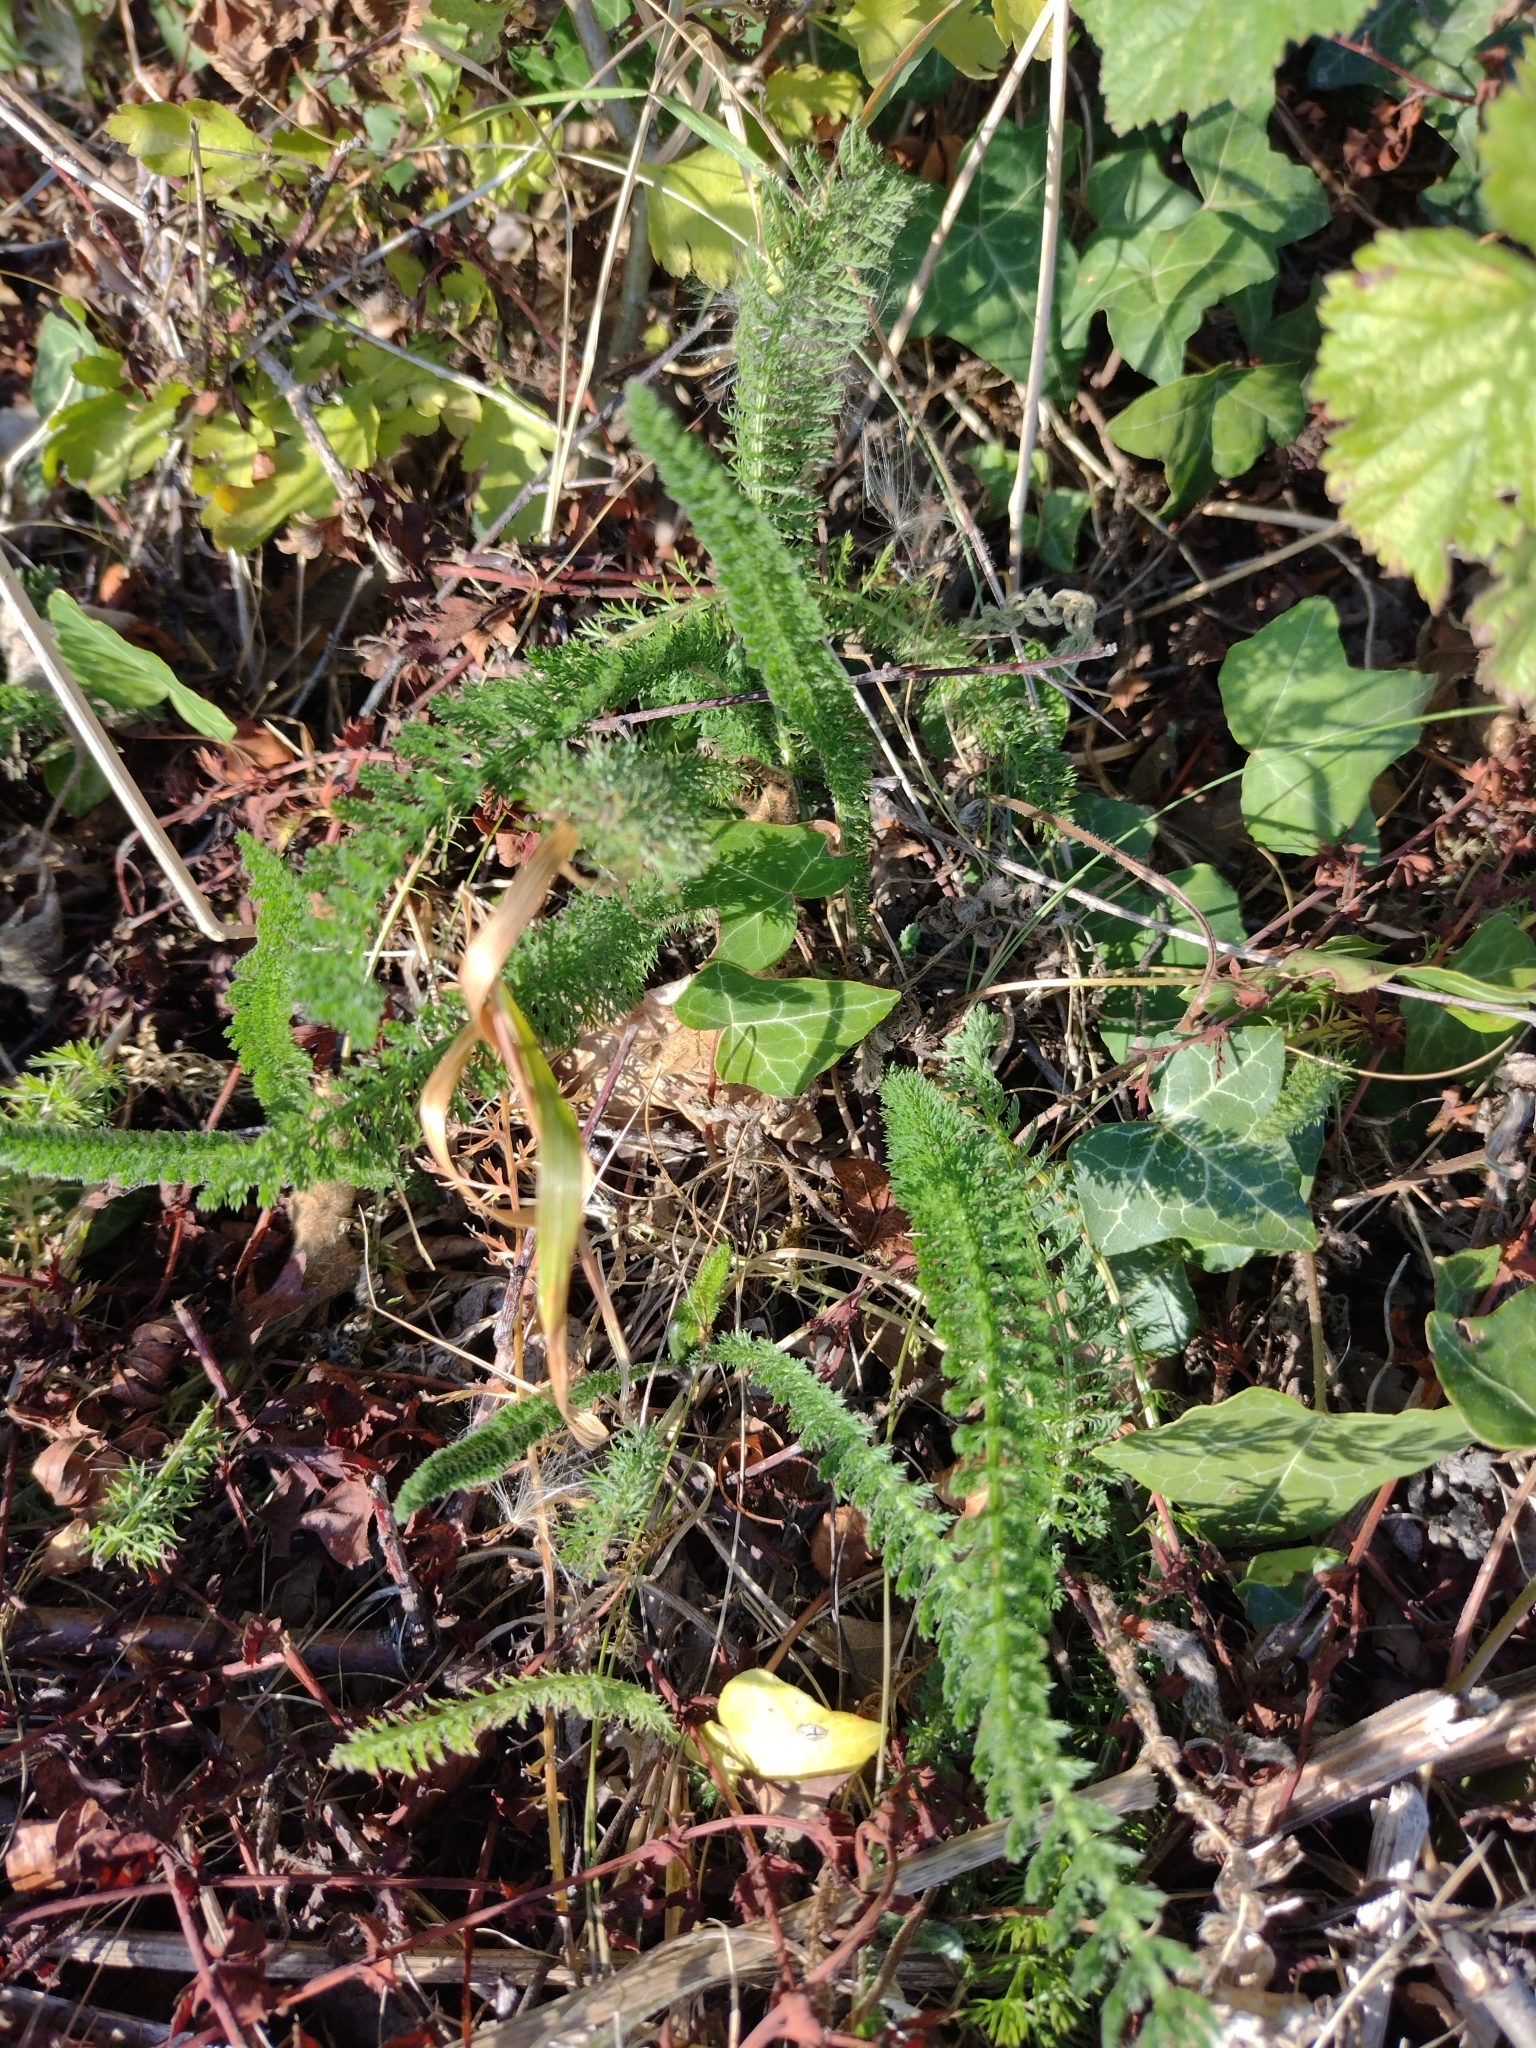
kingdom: Plantae
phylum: Tracheophyta
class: Magnoliopsida
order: Asterales
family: Asteraceae
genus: Achillea
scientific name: Achillea millefolium
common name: Yarrow
